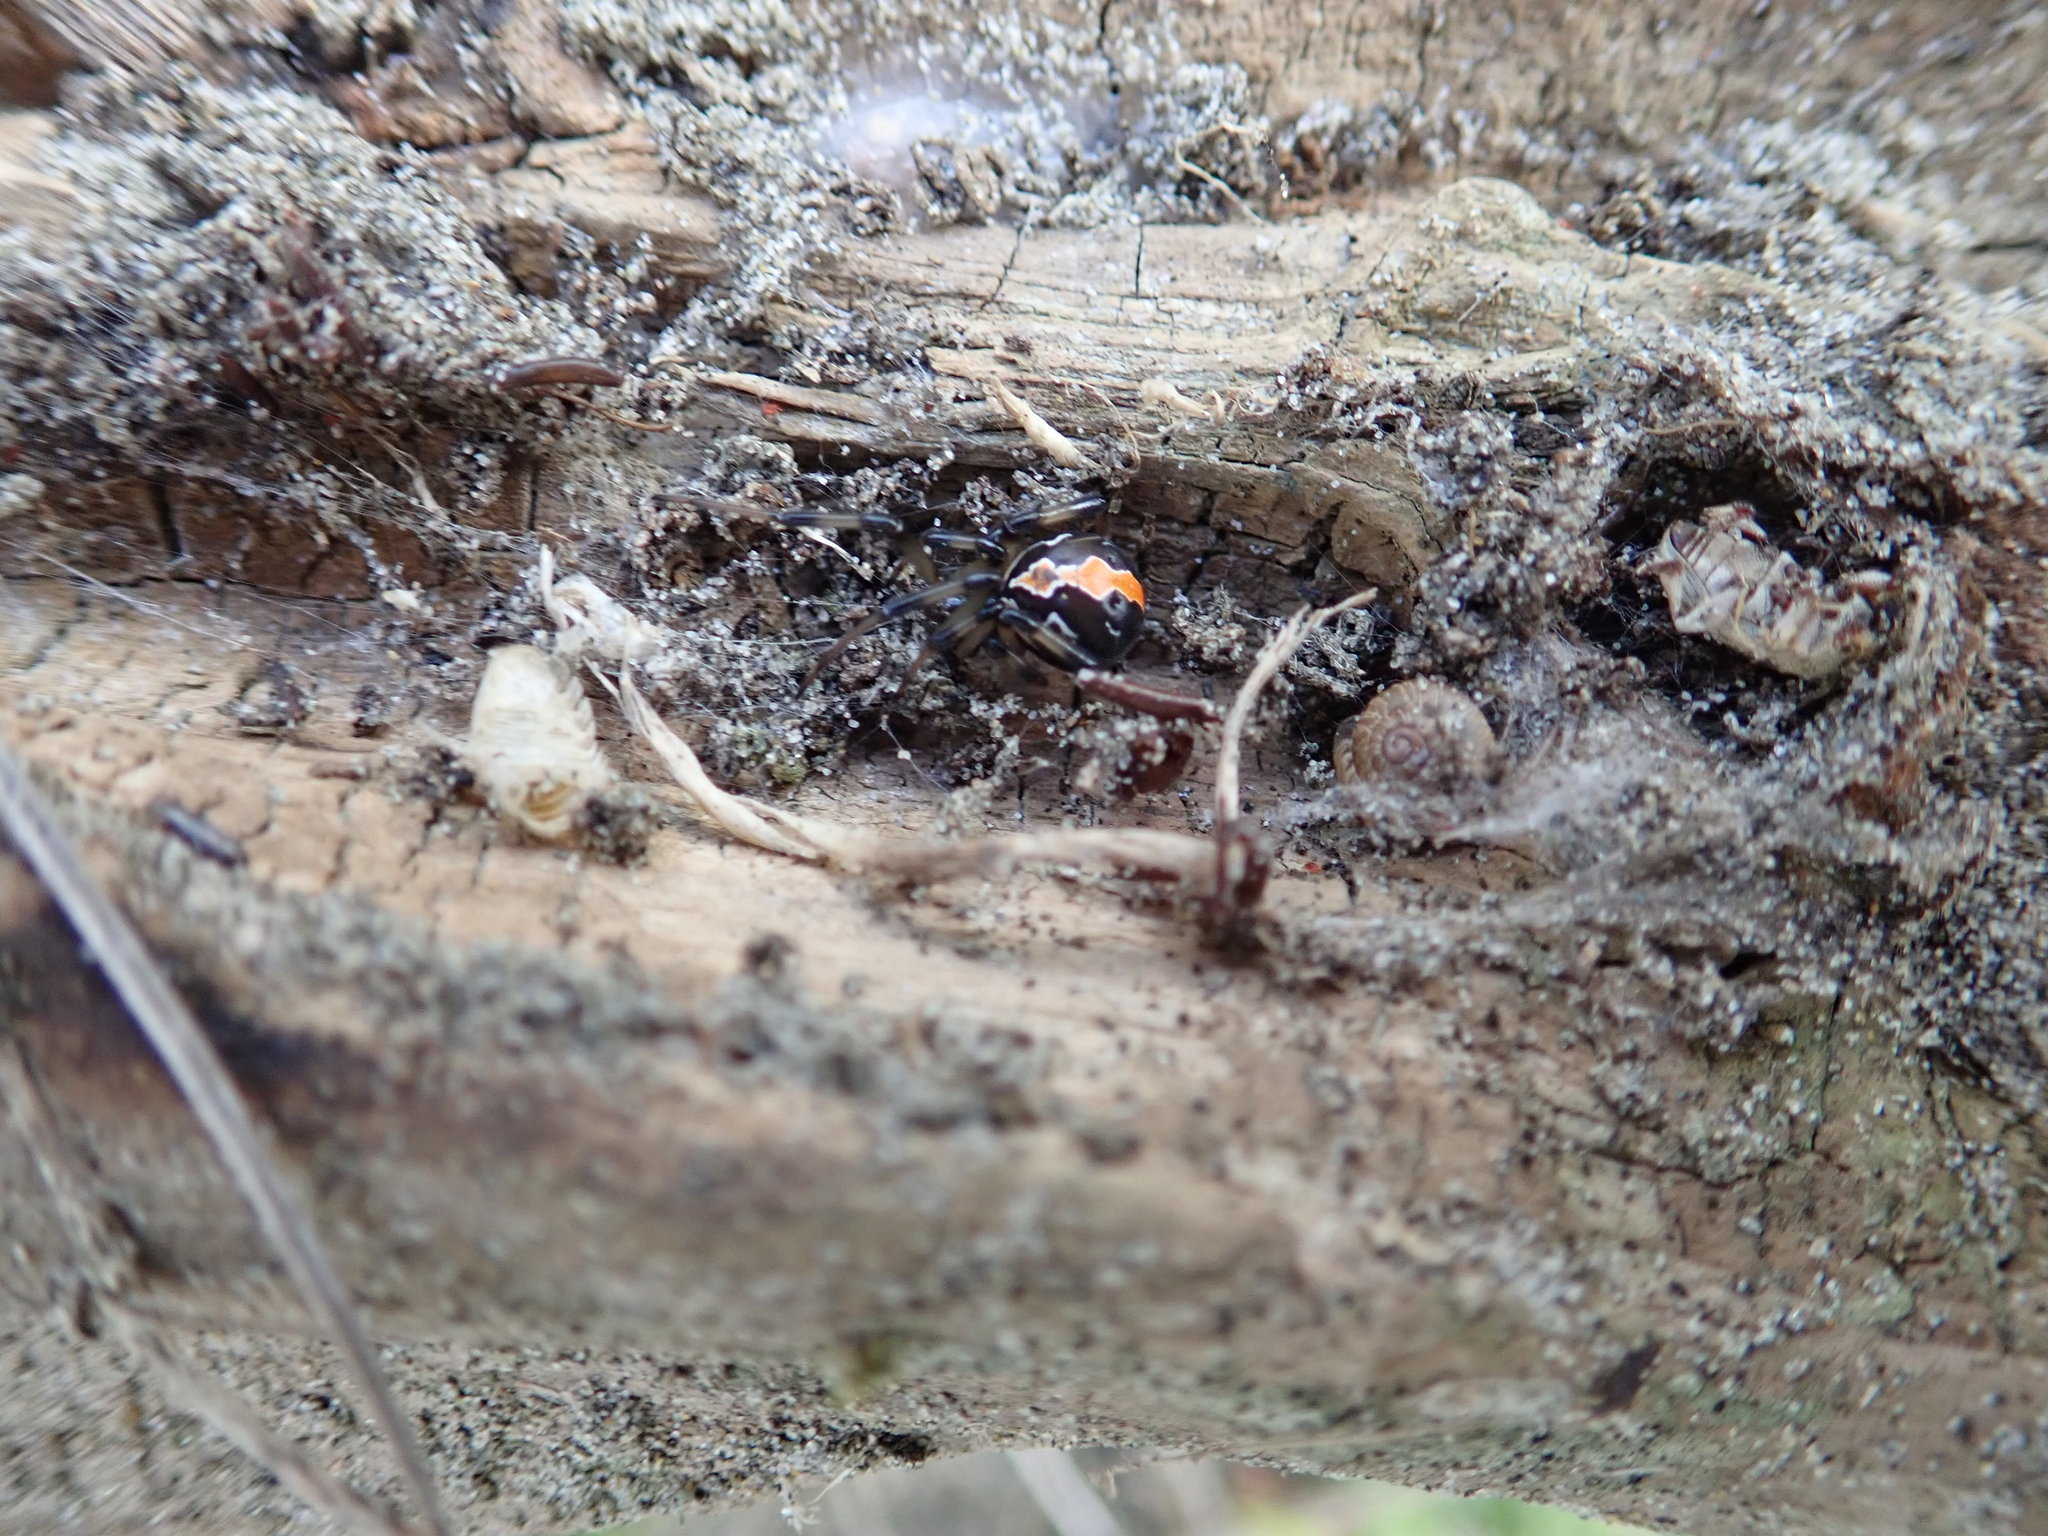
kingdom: Animalia
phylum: Arthropoda
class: Arachnida
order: Araneae
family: Theridiidae
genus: Latrodectus
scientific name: Latrodectus katipo
